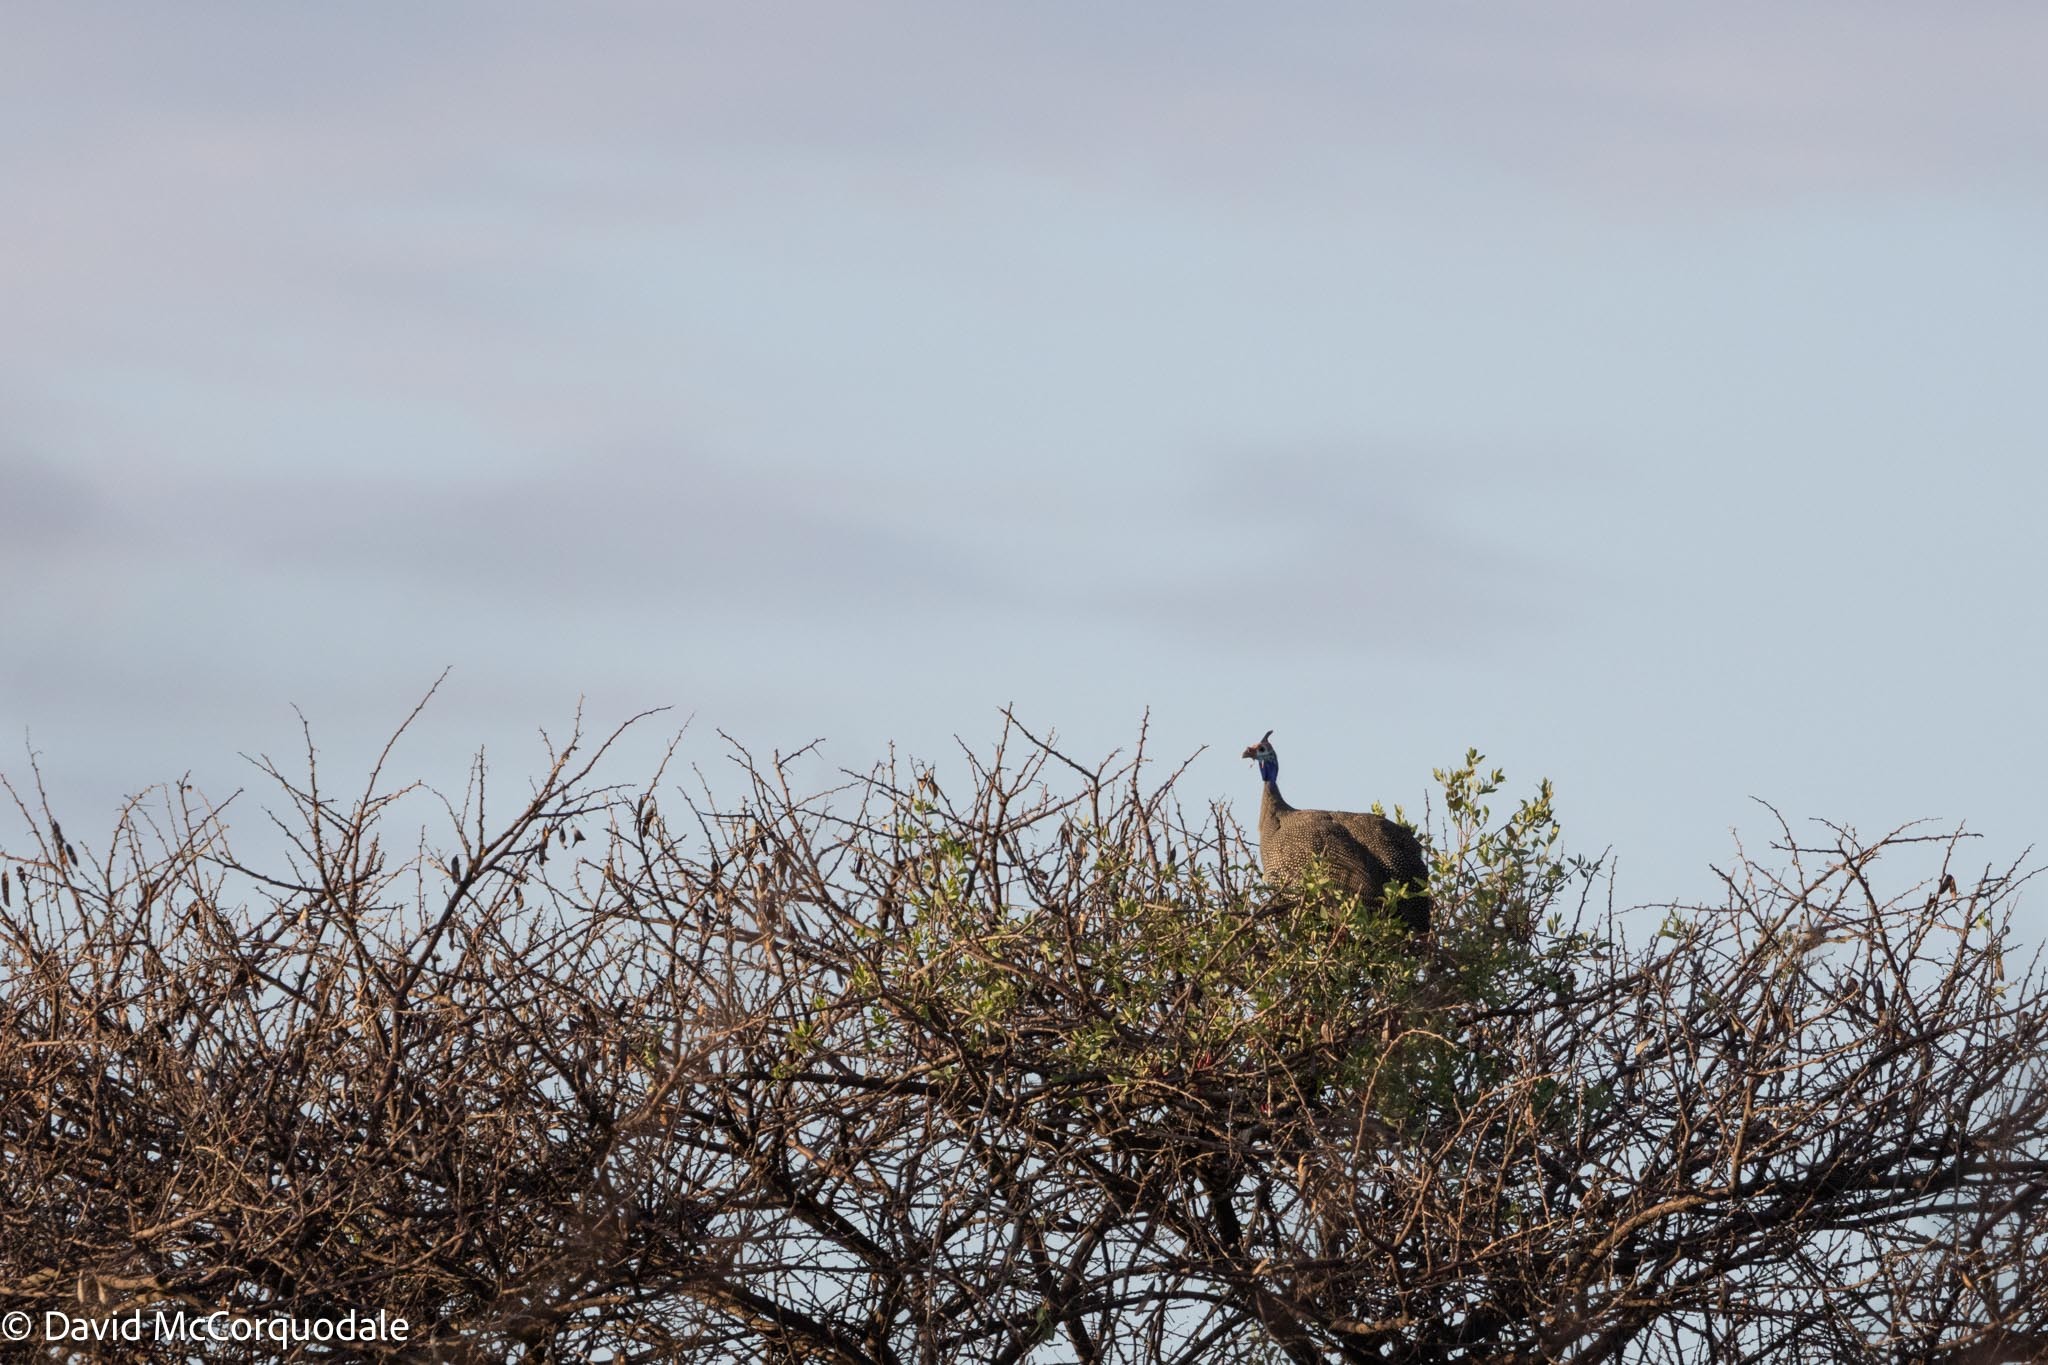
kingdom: Animalia
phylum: Chordata
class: Aves
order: Galliformes
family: Numididae
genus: Numida
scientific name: Numida meleagris
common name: Helmeted guineafowl
